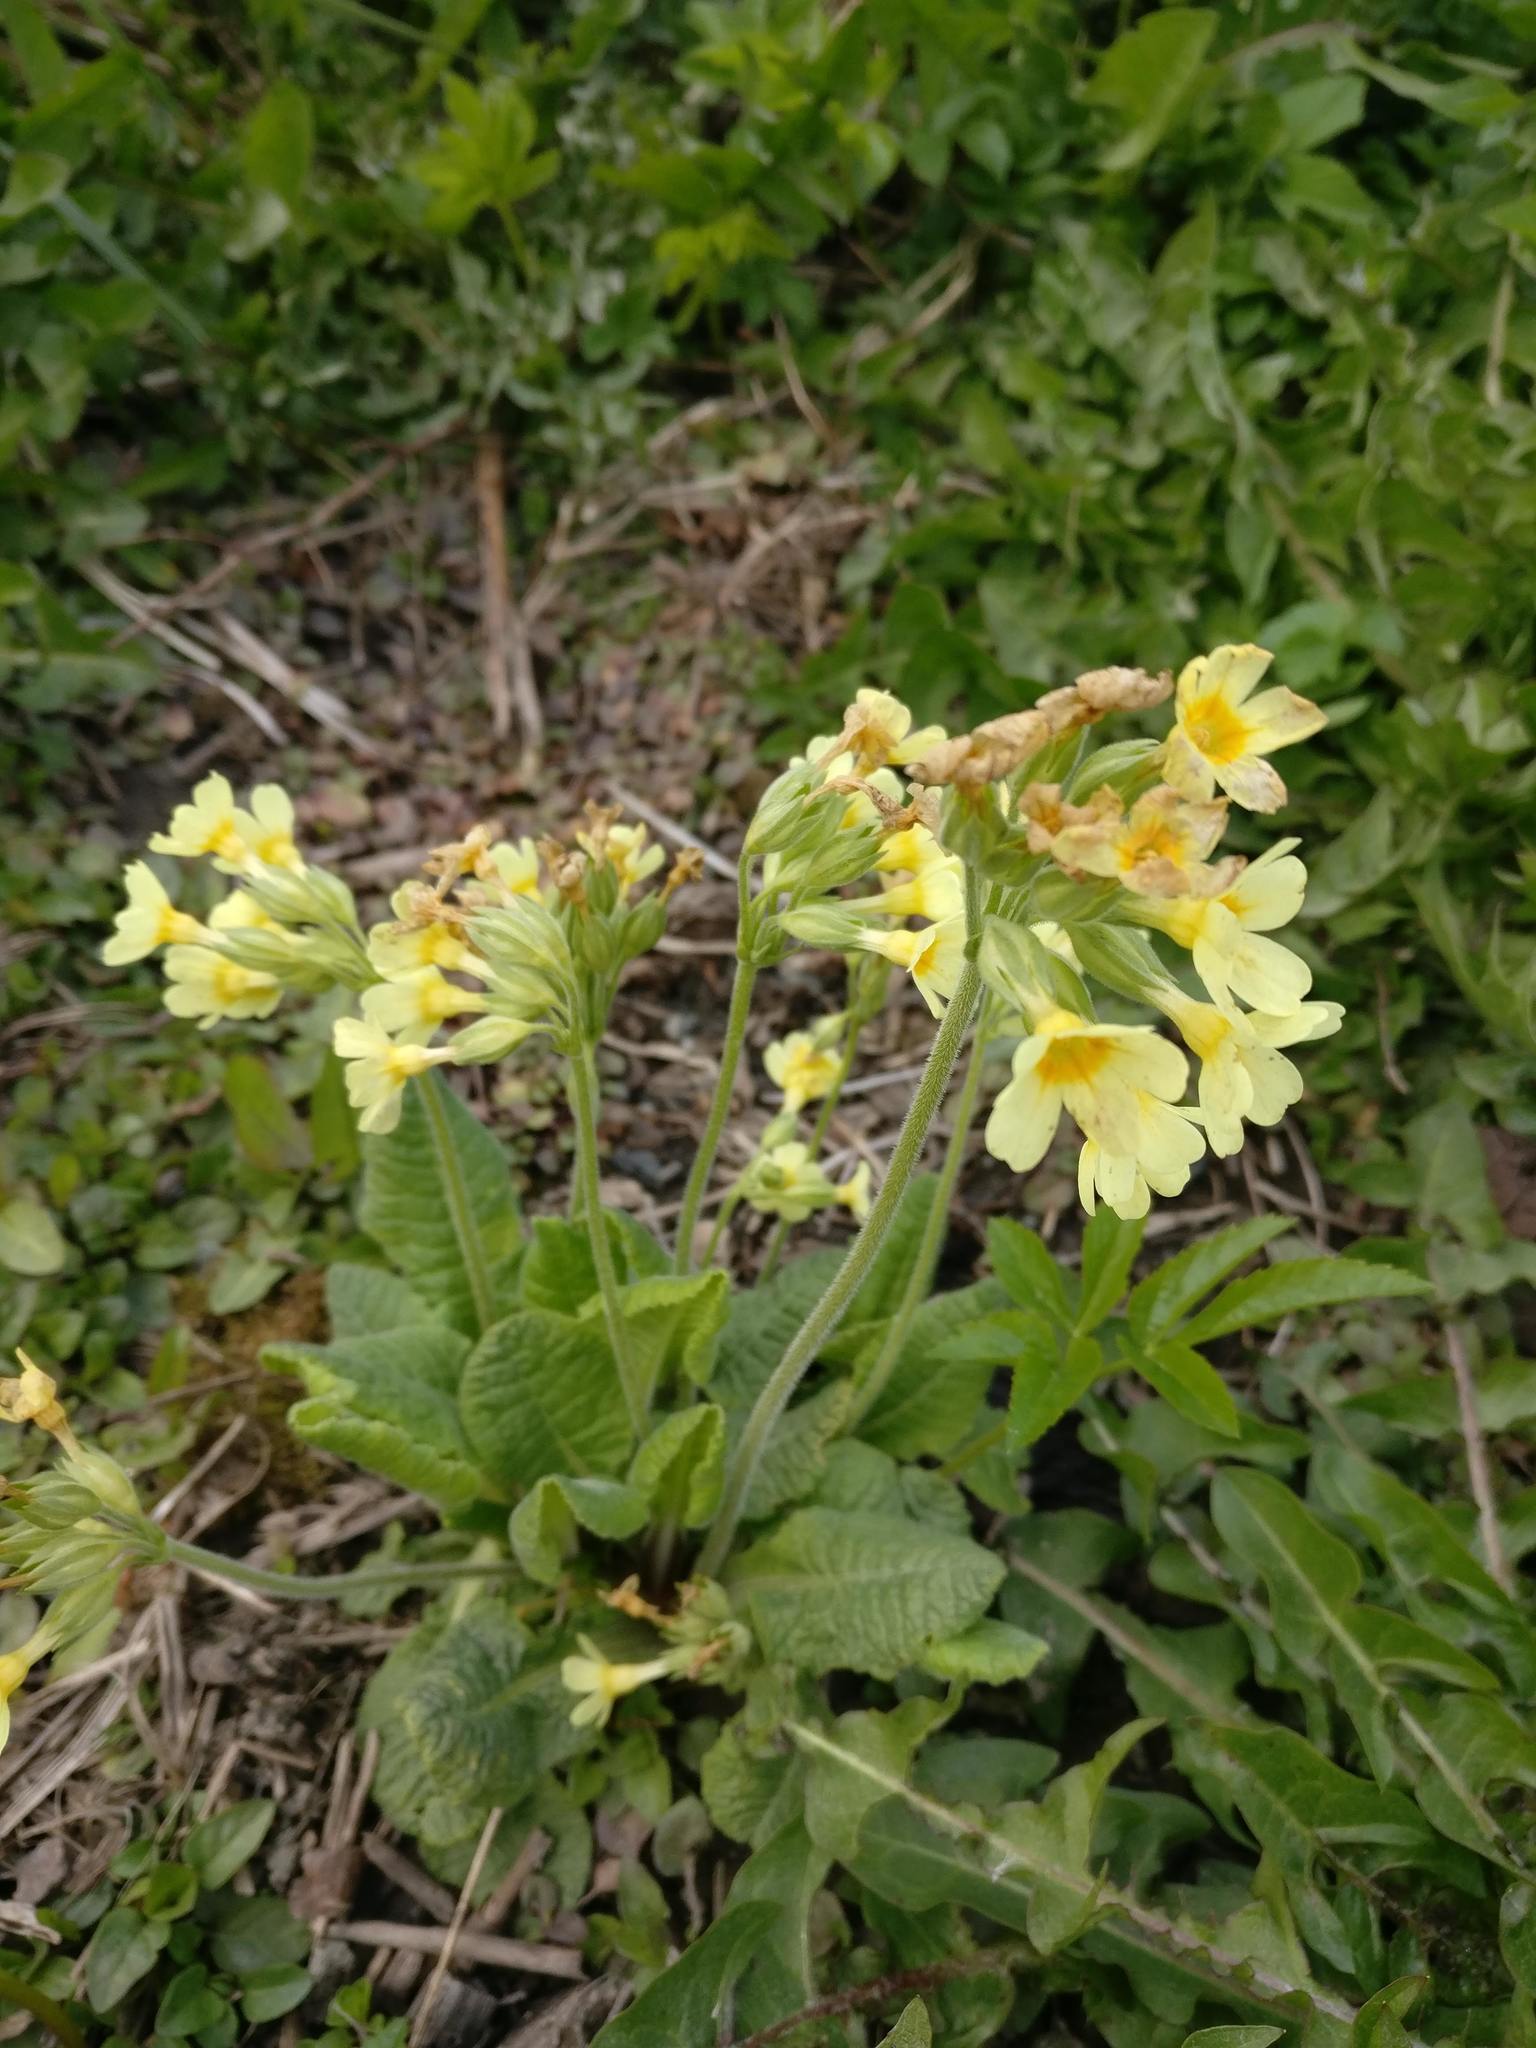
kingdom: Plantae
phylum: Tracheophyta
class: Magnoliopsida
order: Ericales
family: Primulaceae
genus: Primula
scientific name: Primula elatior
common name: Oxlip
